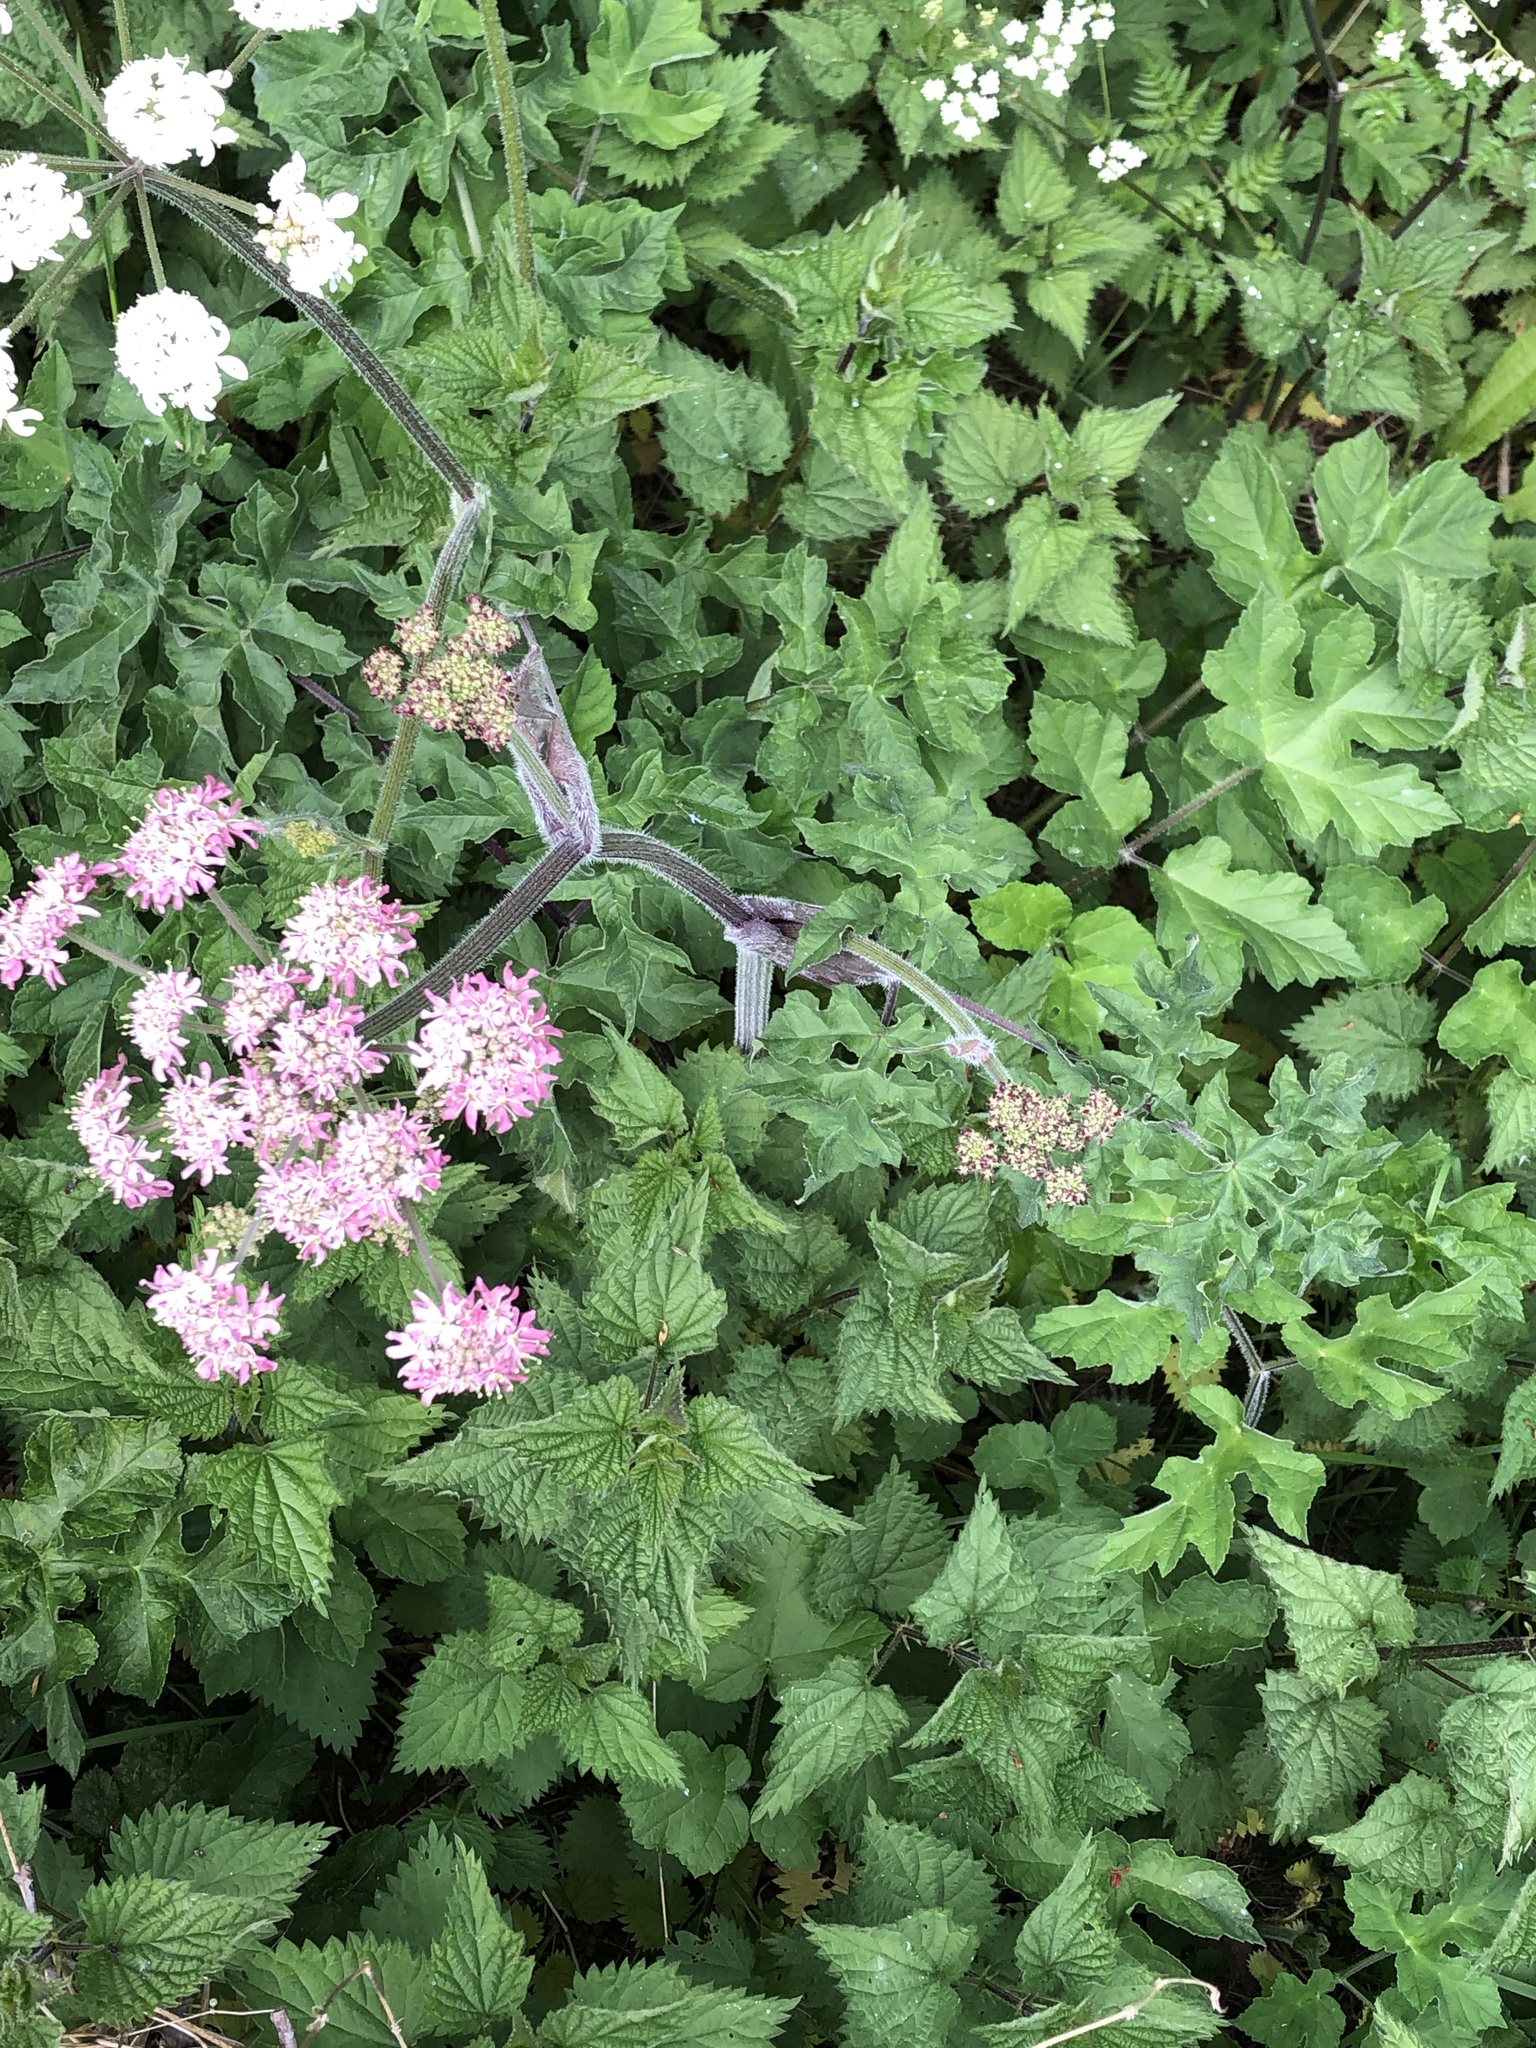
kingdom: Plantae
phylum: Tracheophyta
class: Magnoliopsida
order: Apiales
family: Apiaceae
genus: Heracleum
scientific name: Heracleum sphondylium
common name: Hogweed
